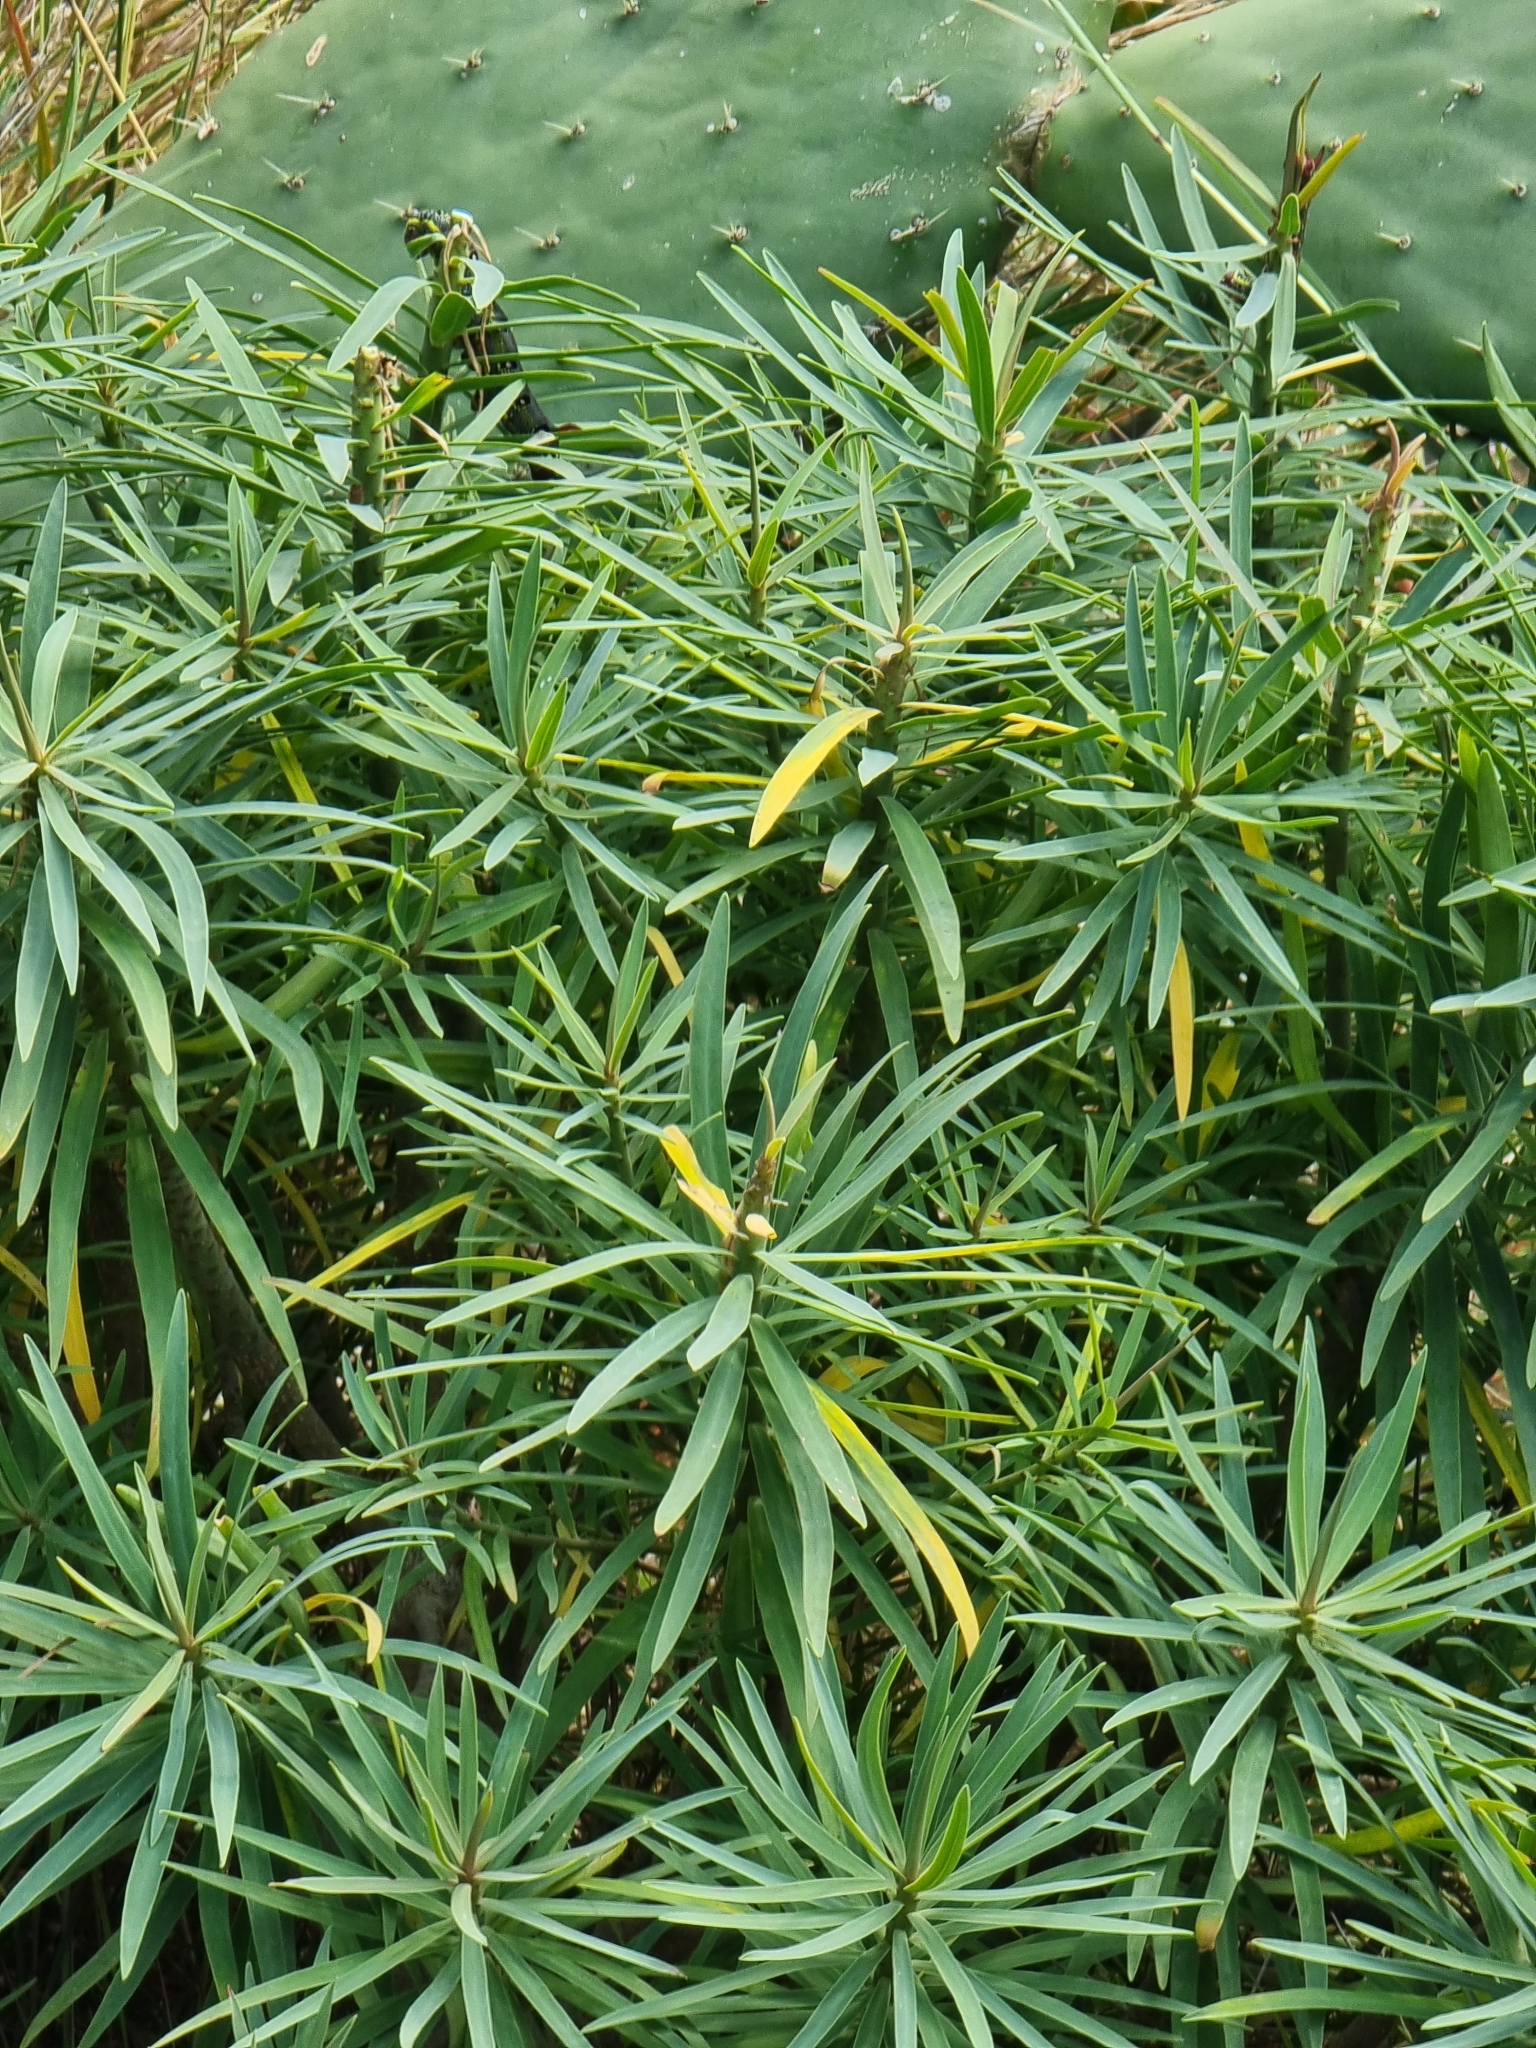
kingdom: Plantae
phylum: Tracheophyta
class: Magnoliopsida
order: Malpighiales
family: Euphorbiaceae
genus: Euphorbia
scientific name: Euphorbia piscatoria
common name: Fish-stunning spurge
